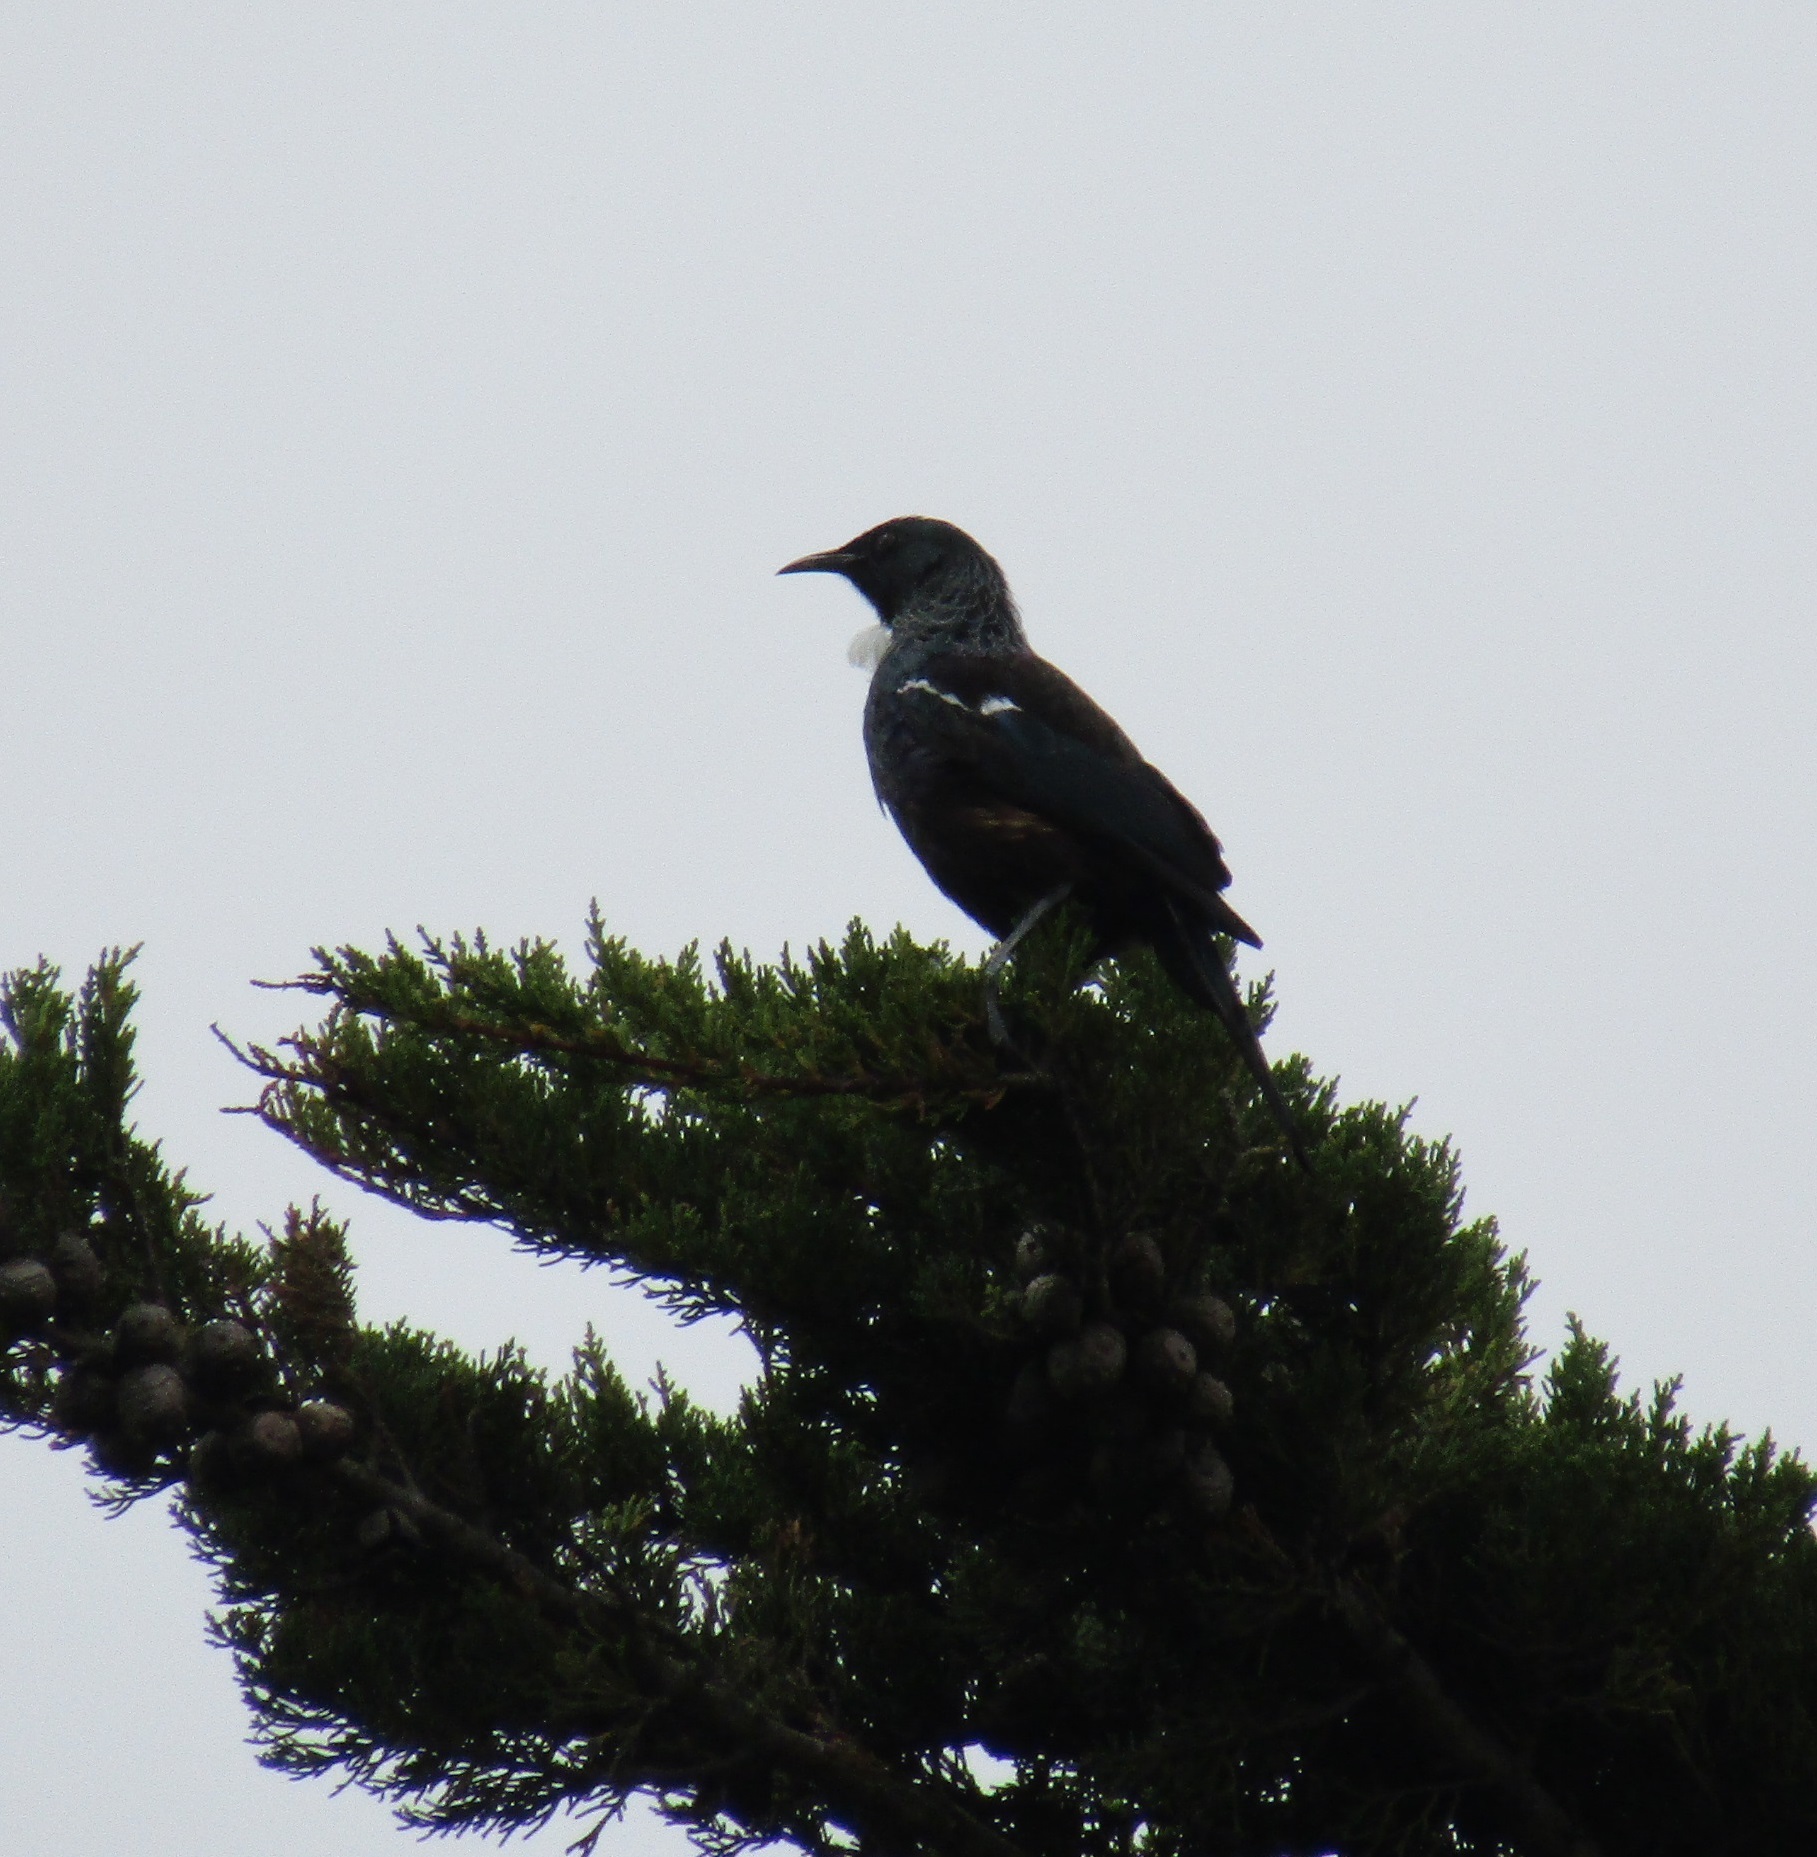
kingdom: Animalia
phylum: Chordata
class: Aves
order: Passeriformes
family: Meliphagidae
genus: Prosthemadera
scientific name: Prosthemadera novaeseelandiae
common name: Tui
